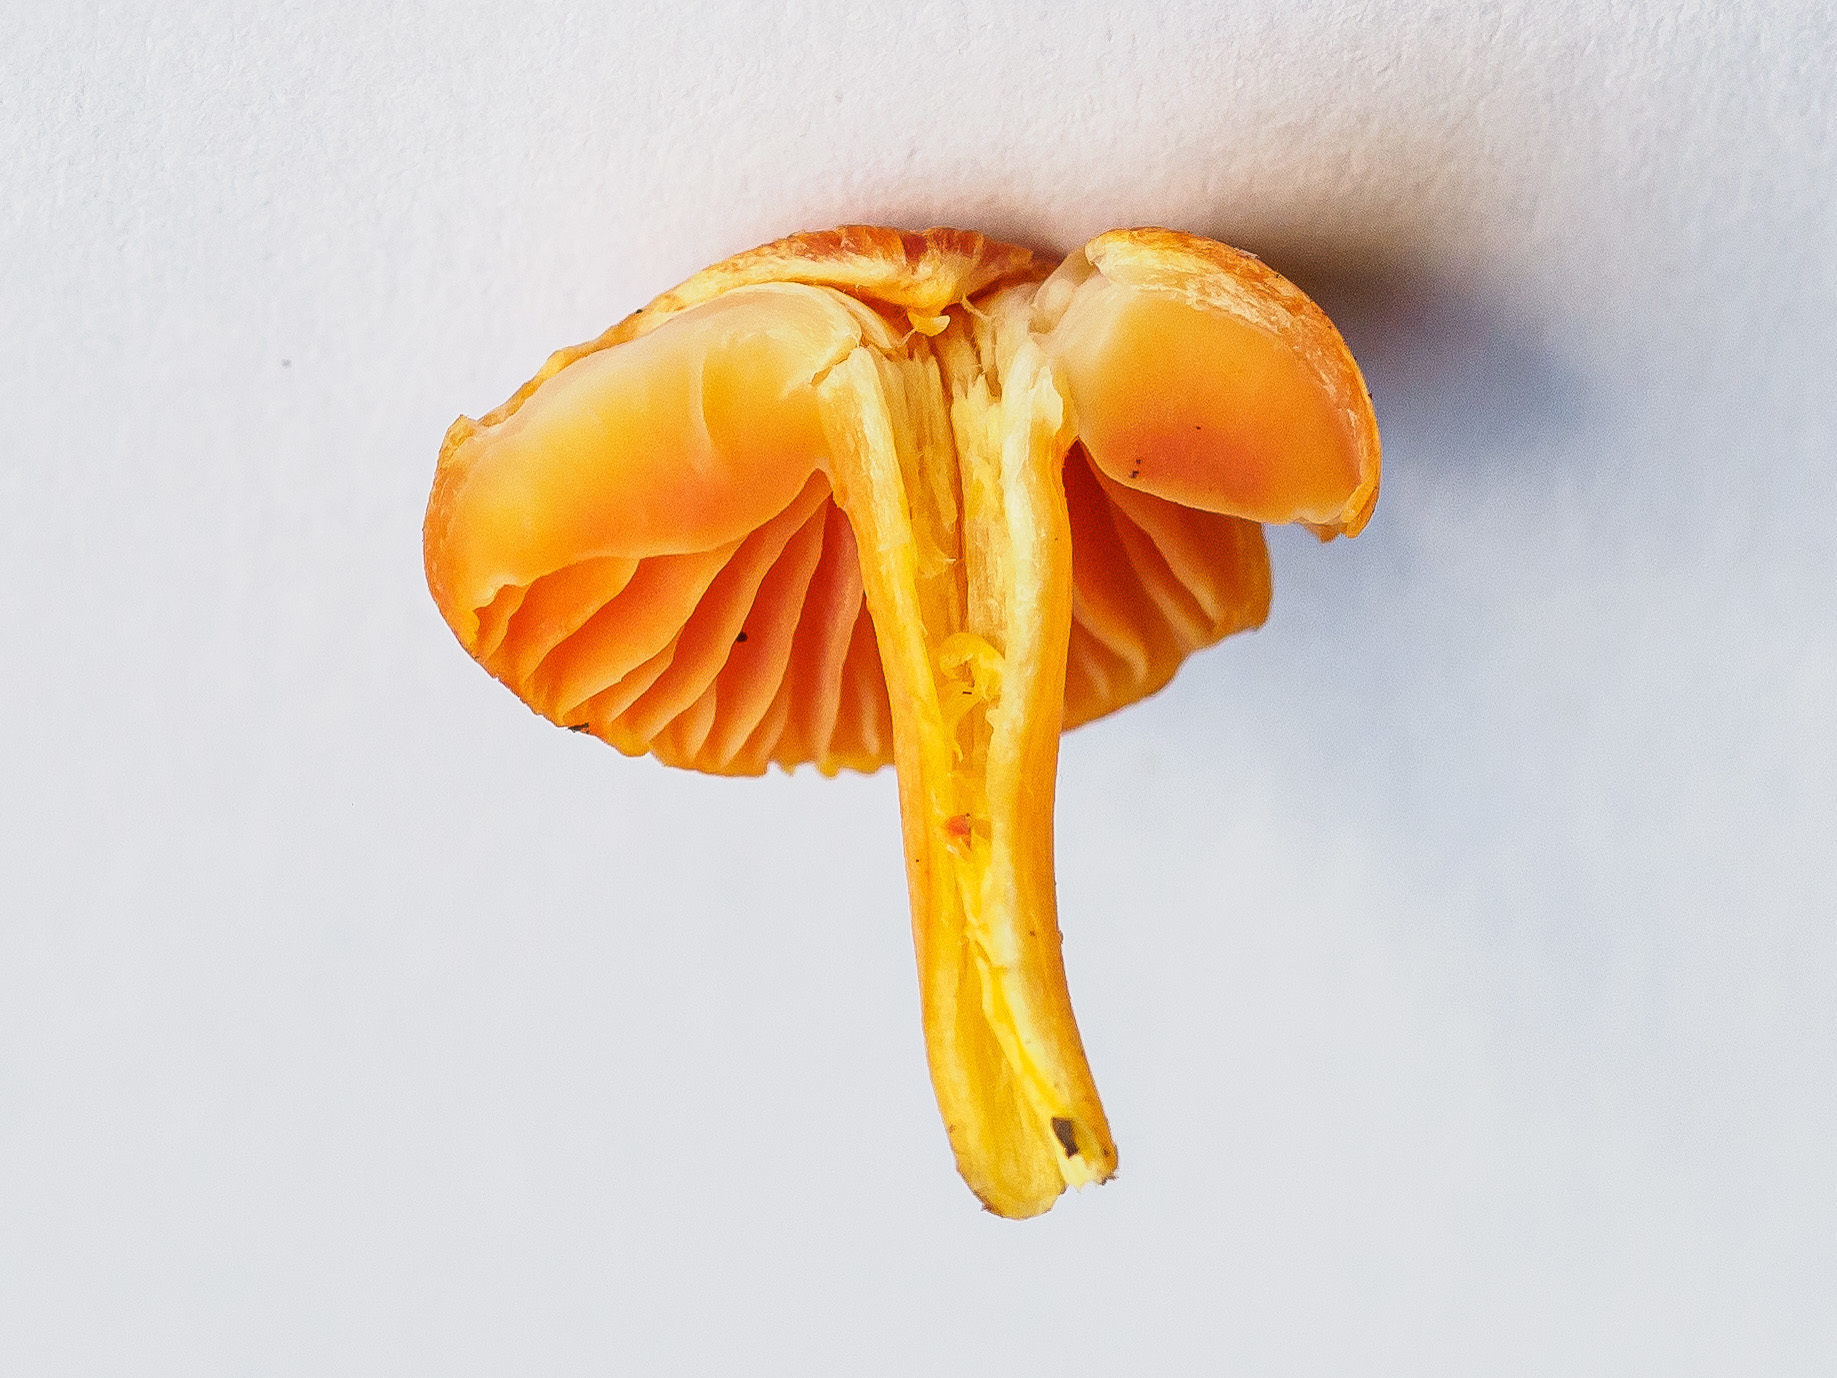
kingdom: Fungi
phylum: Basidiomycota
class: Agaricomycetes
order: Agaricales
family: Hygrophoraceae
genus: Hygrocybe
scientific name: Hygrocybe calciphila
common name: Limestone waxcap
